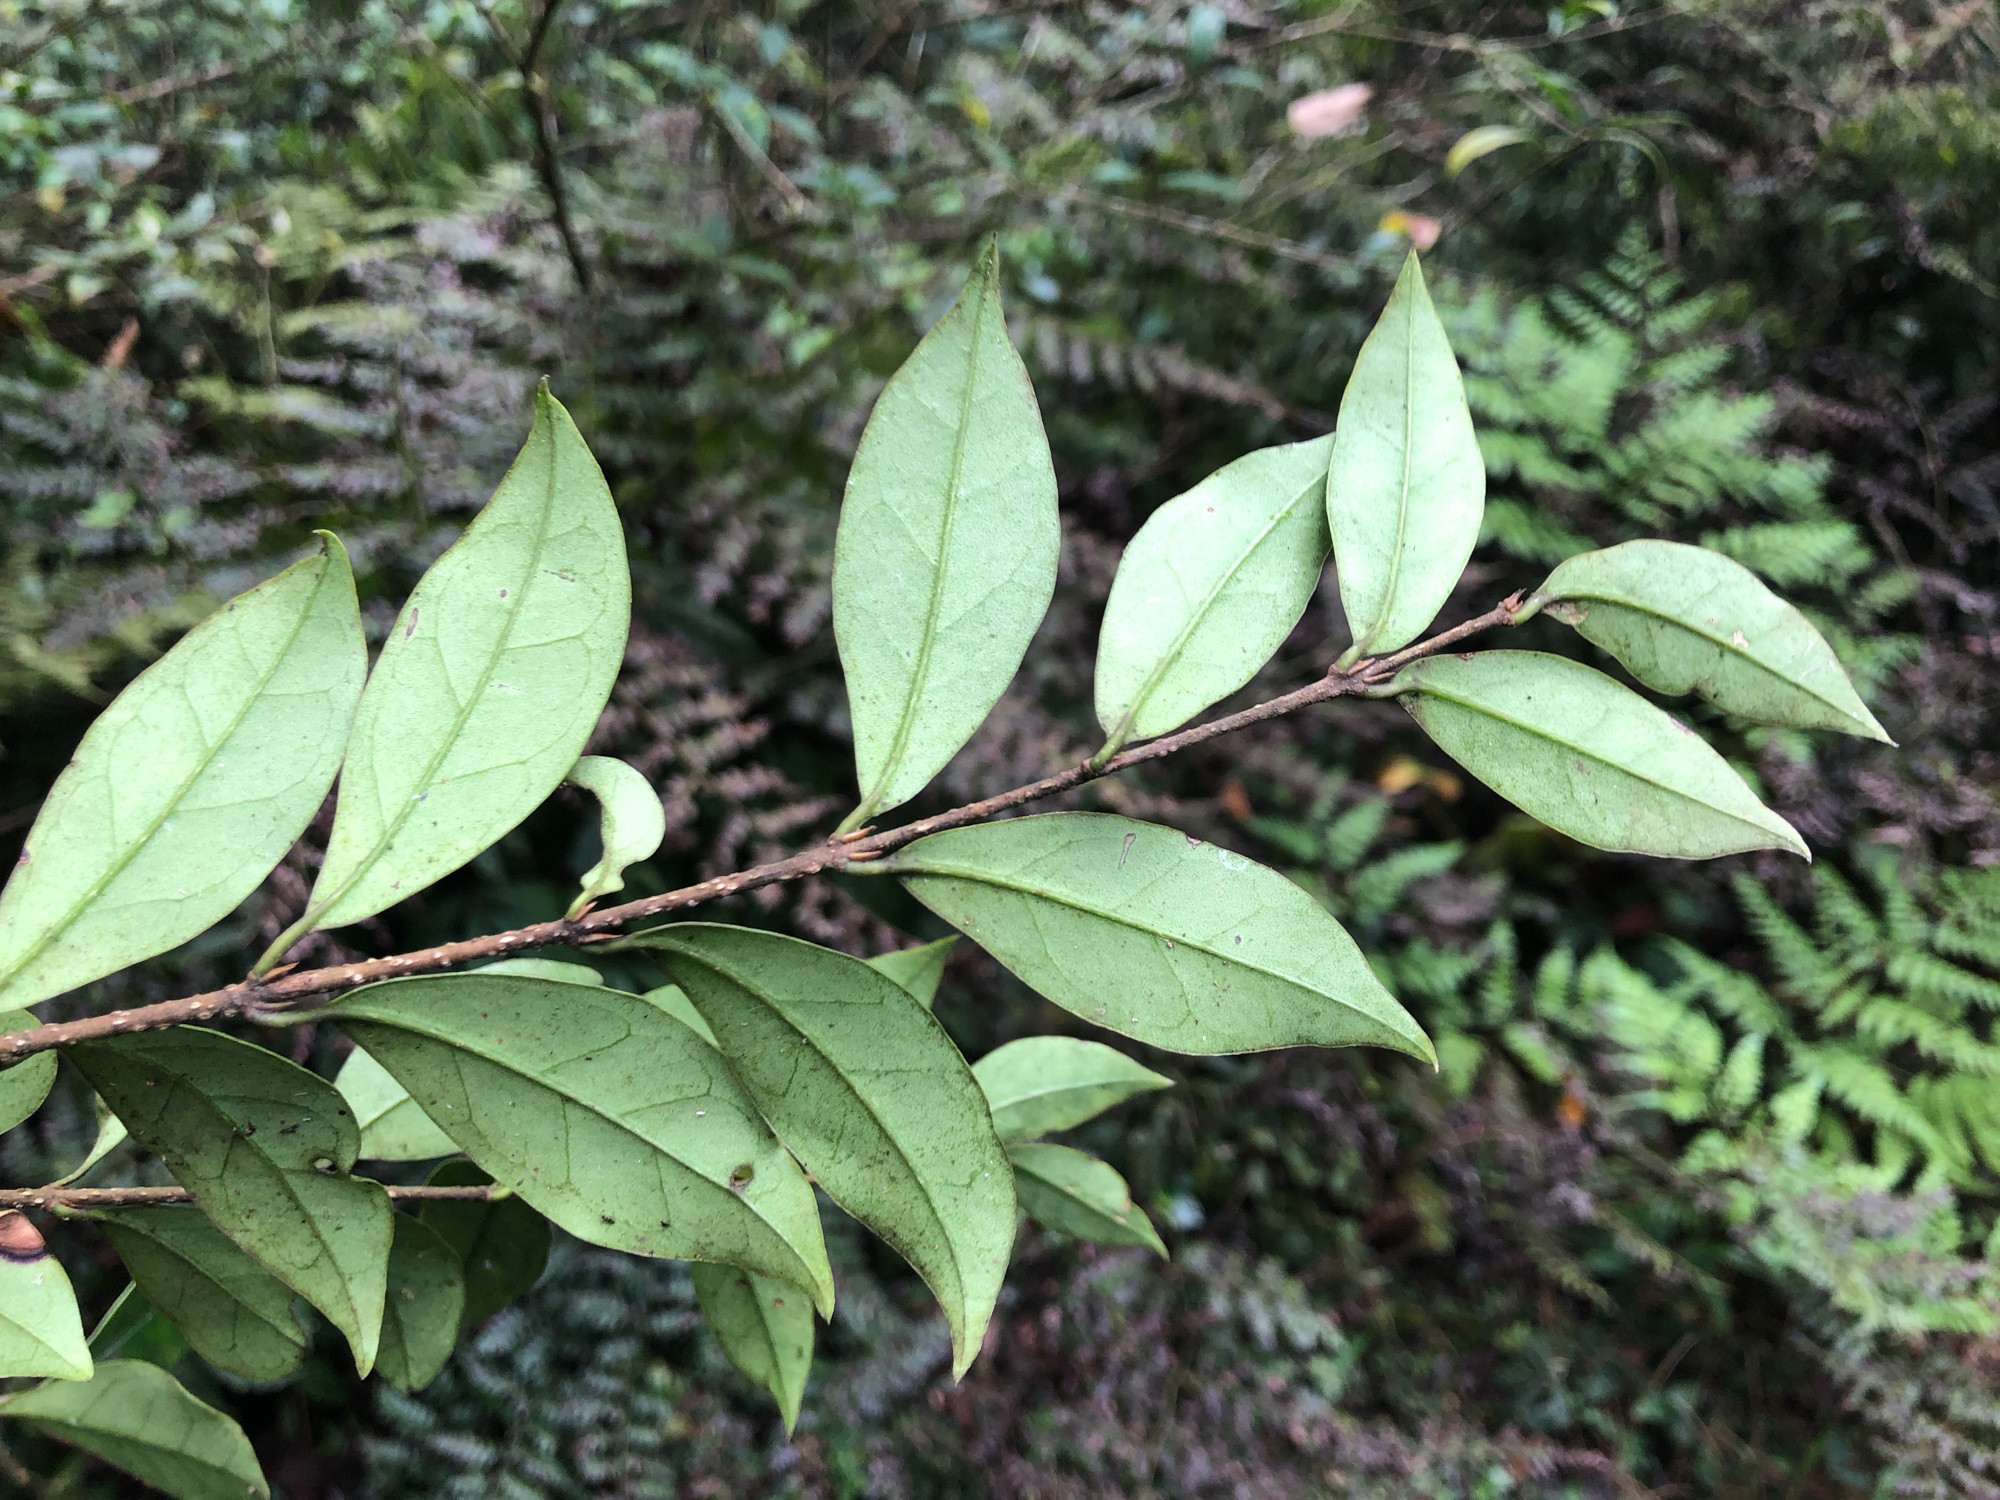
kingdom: Plantae
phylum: Tracheophyta
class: Magnoliopsida
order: Lamiales
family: Oleaceae
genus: Ligustrum
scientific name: Ligustrum pricei
